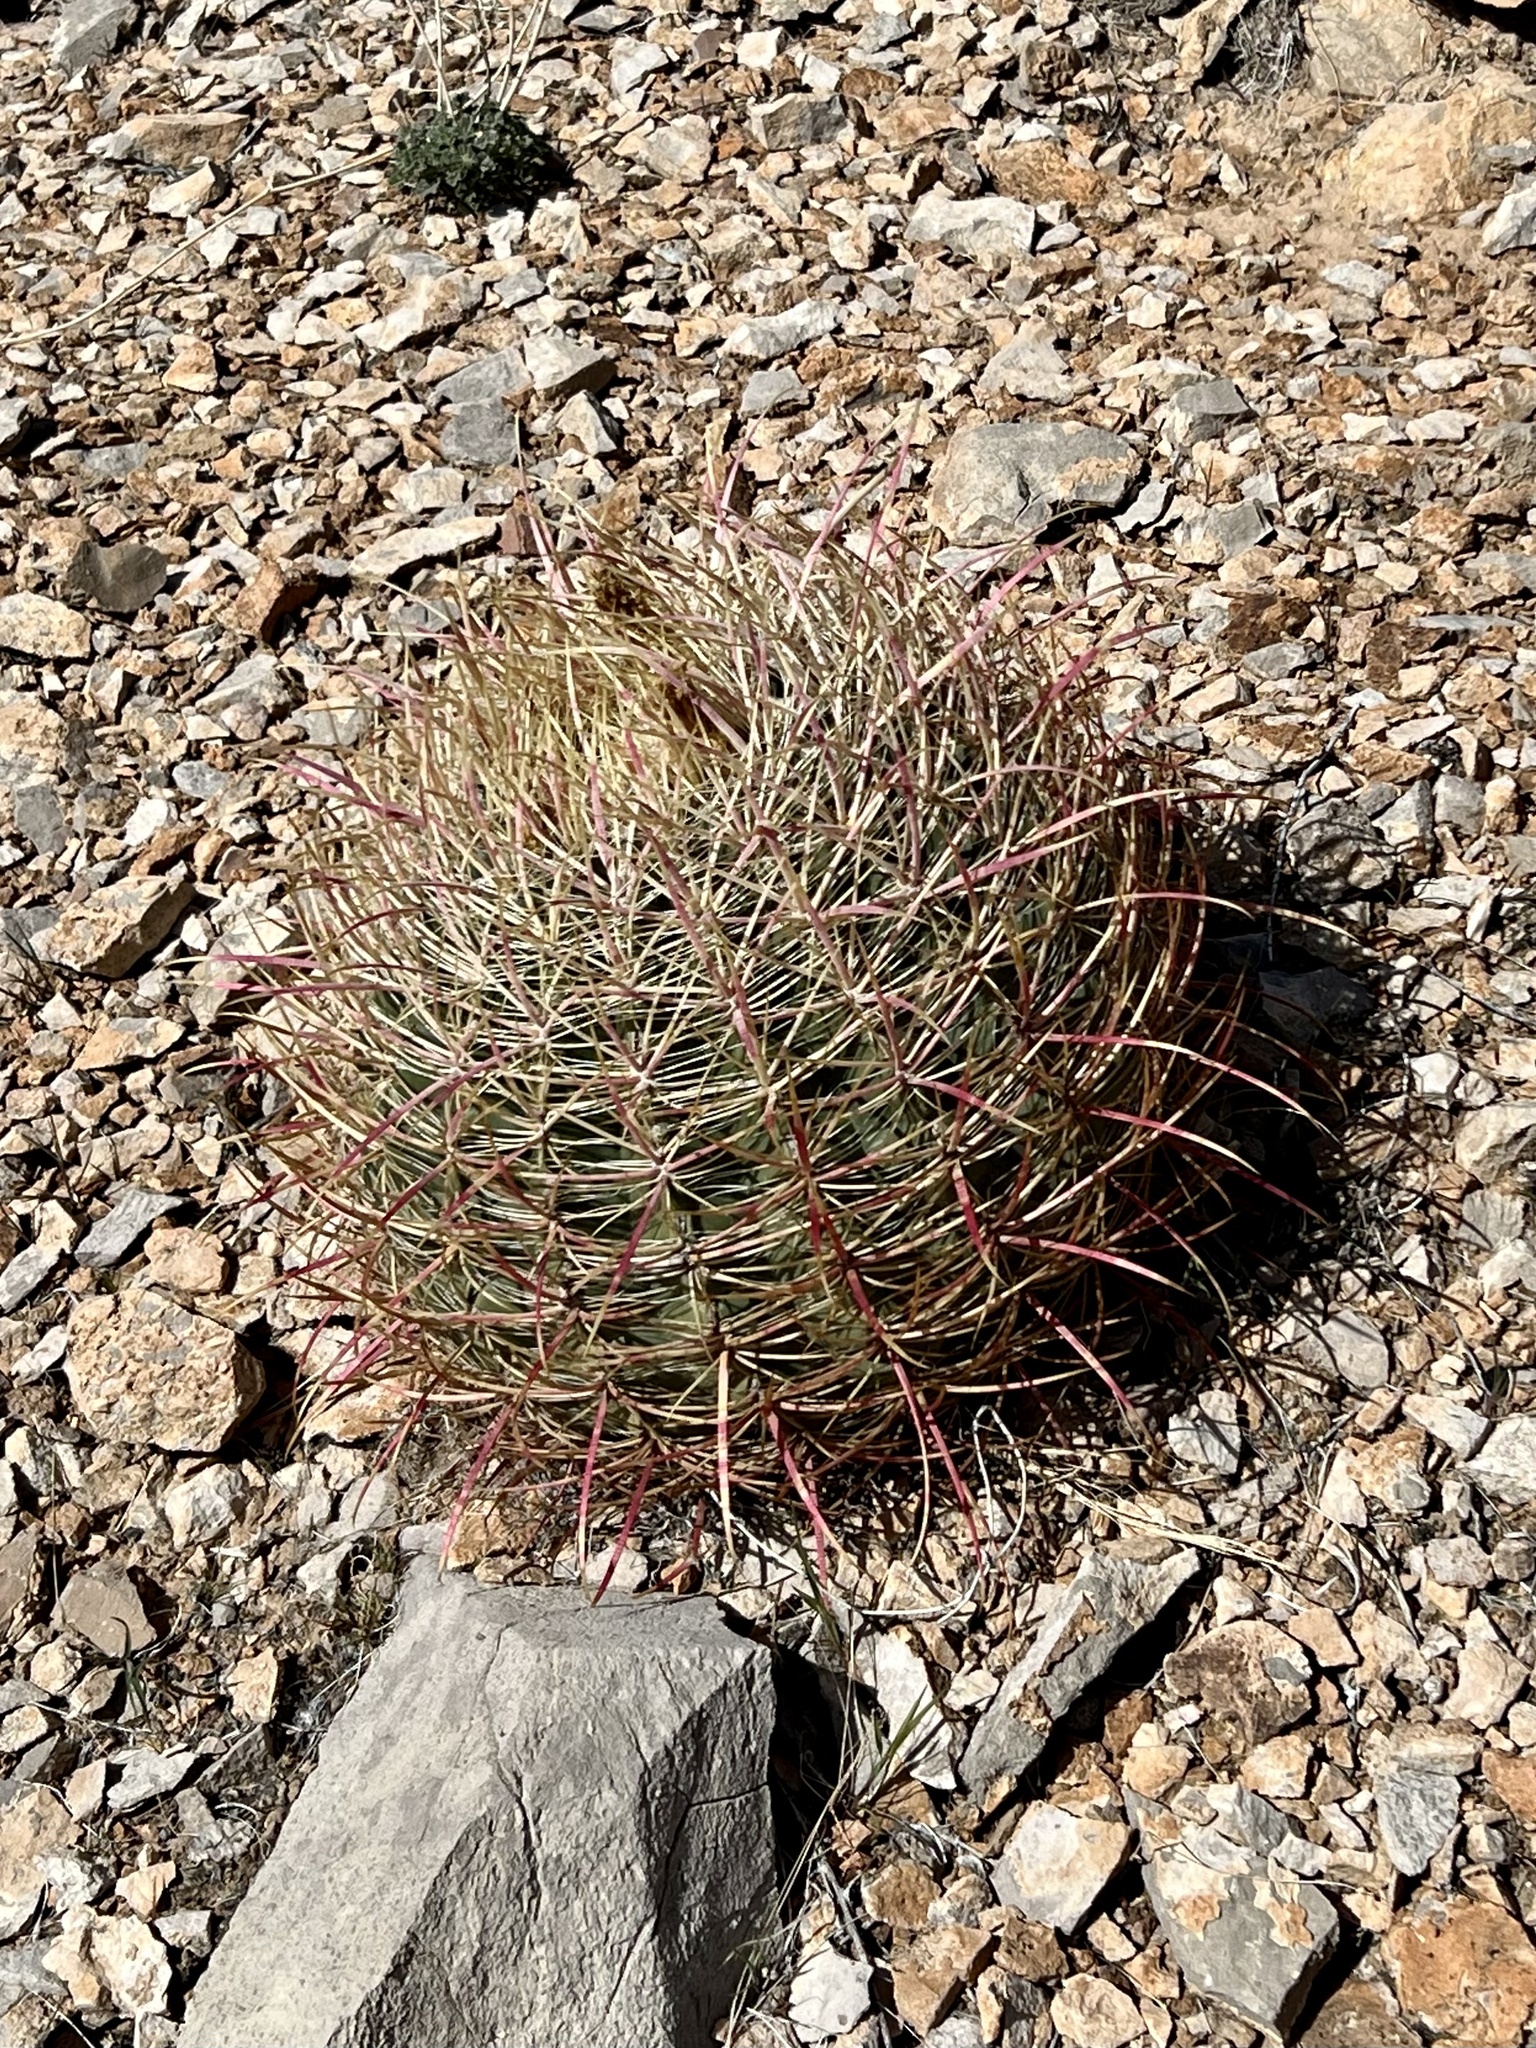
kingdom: Plantae
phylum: Tracheophyta
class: Magnoliopsida
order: Caryophyllales
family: Cactaceae
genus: Ferocactus
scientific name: Ferocactus cylindraceus
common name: California barrel cactus
